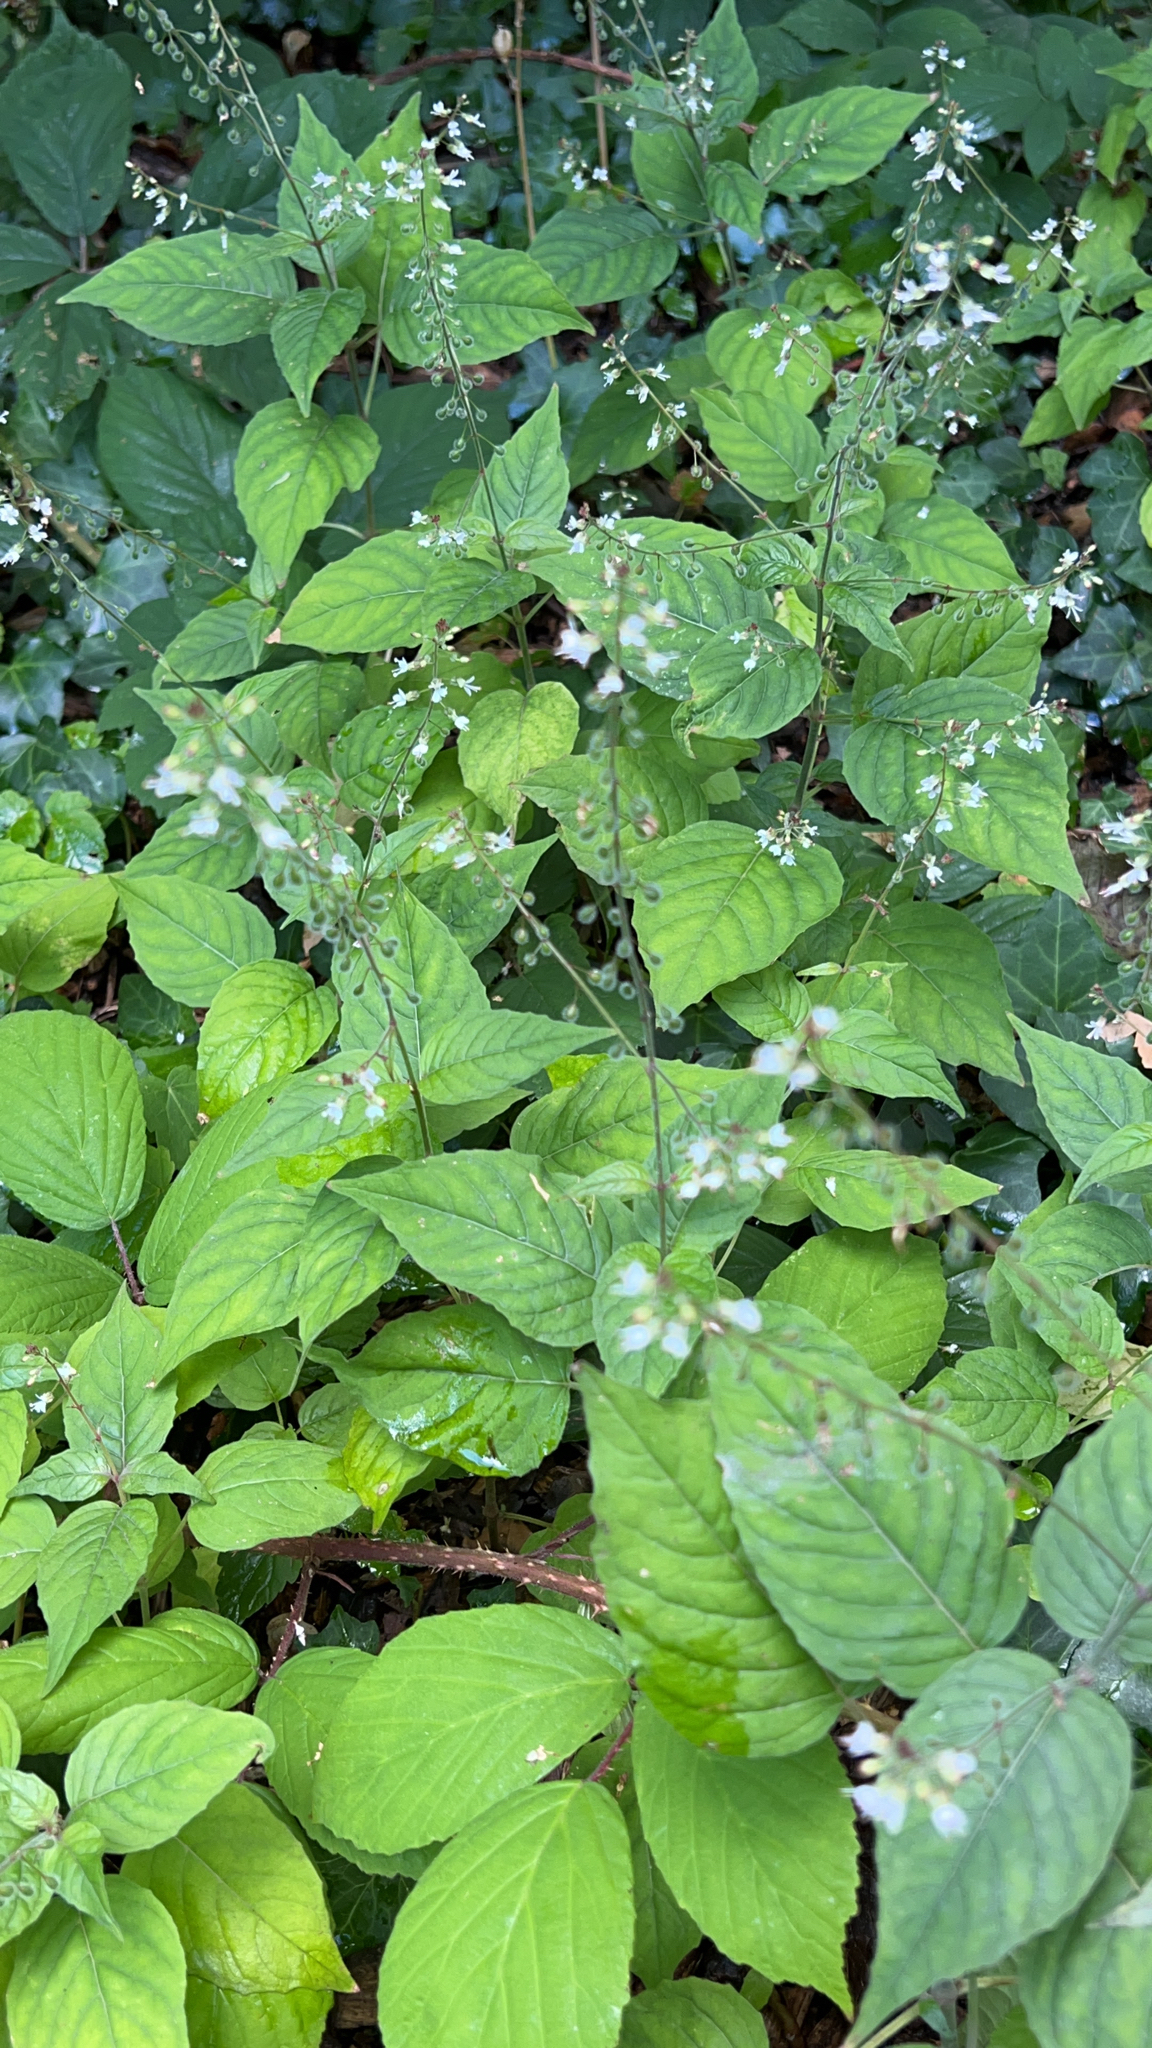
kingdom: Plantae
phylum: Tracheophyta
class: Magnoliopsida
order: Myrtales
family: Onagraceae
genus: Circaea
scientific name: Circaea lutetiana
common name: Enchanter's-nightshade
